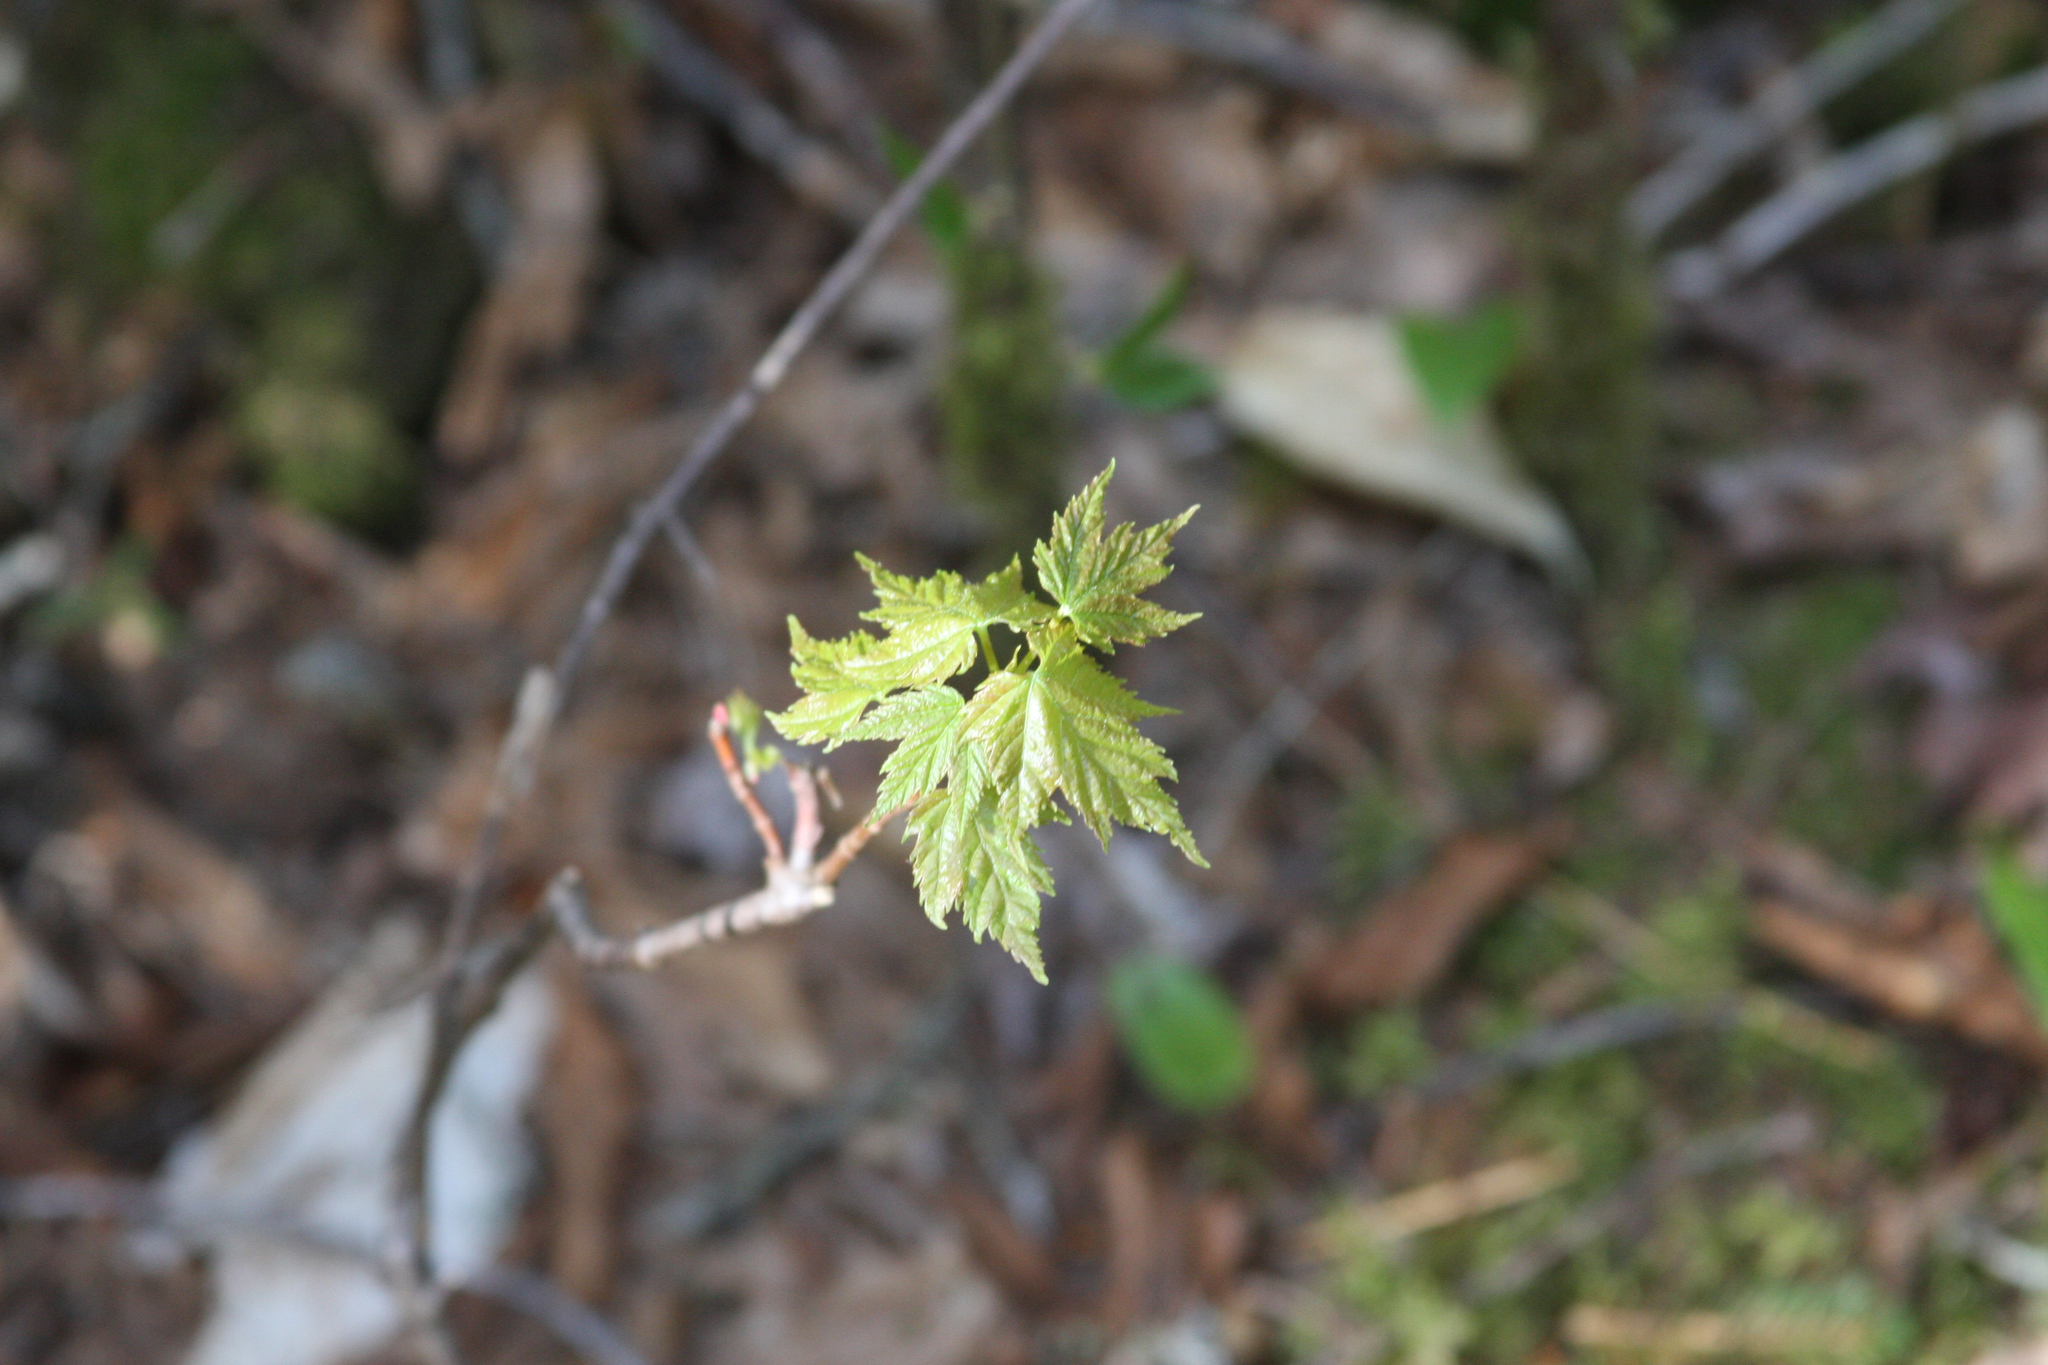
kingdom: Plantae
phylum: Tracheophyta
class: Magnoliopsida
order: Sapindales
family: Sapindaceae
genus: Acer
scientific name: Acer rubrum
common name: Red maple
